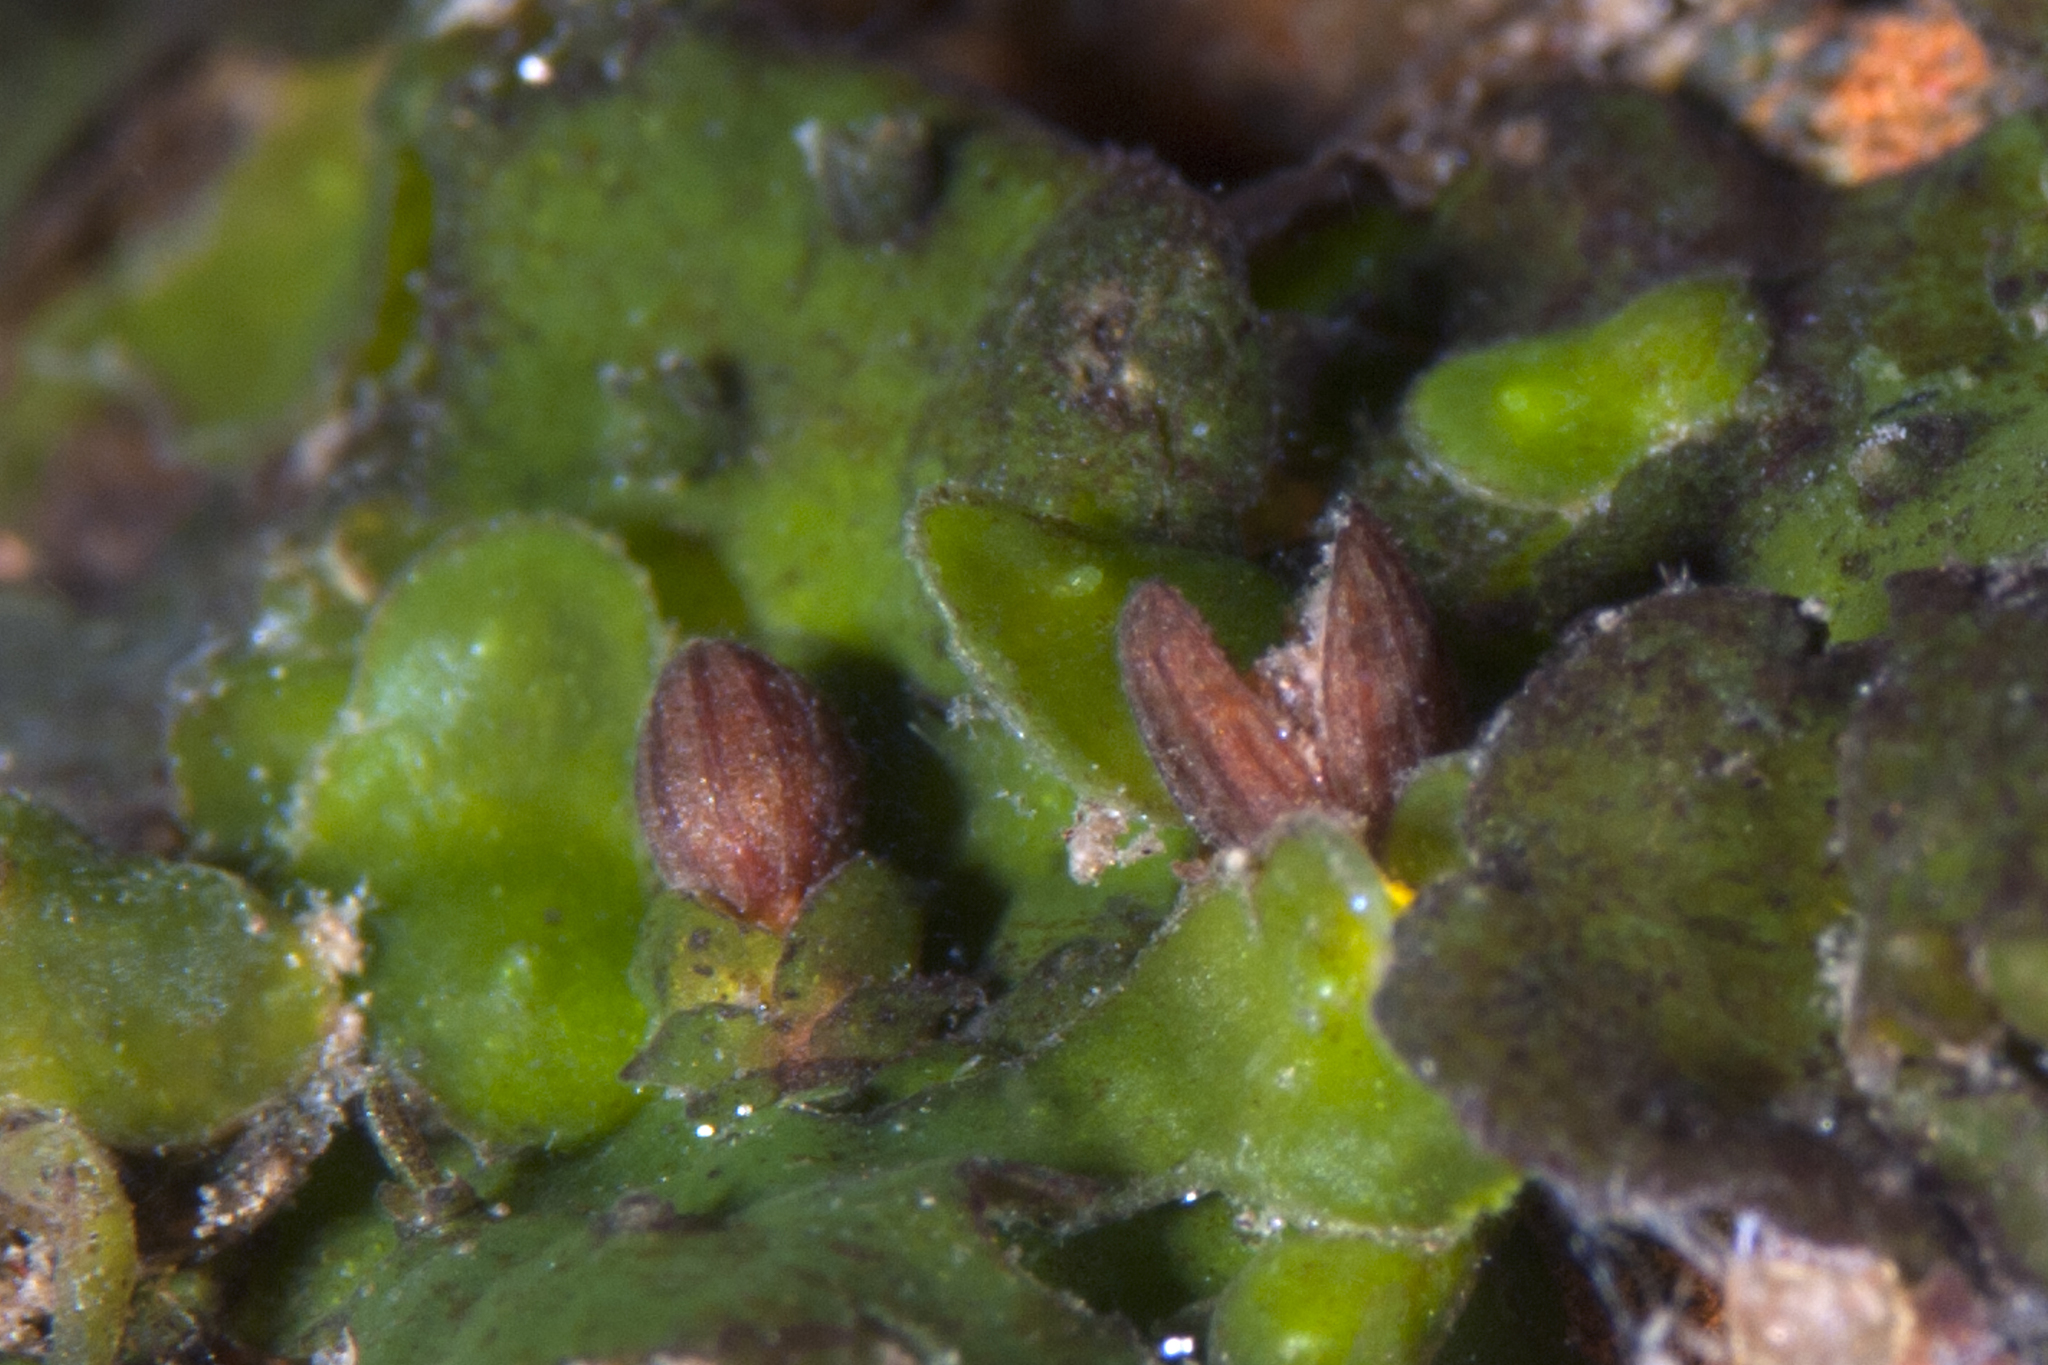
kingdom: Plantae
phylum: Tracheophyta
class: Magnoliopsida
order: Malpighiales
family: Podostemaceae
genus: Hydrobryum
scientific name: Hydrobryum puncticulatum
